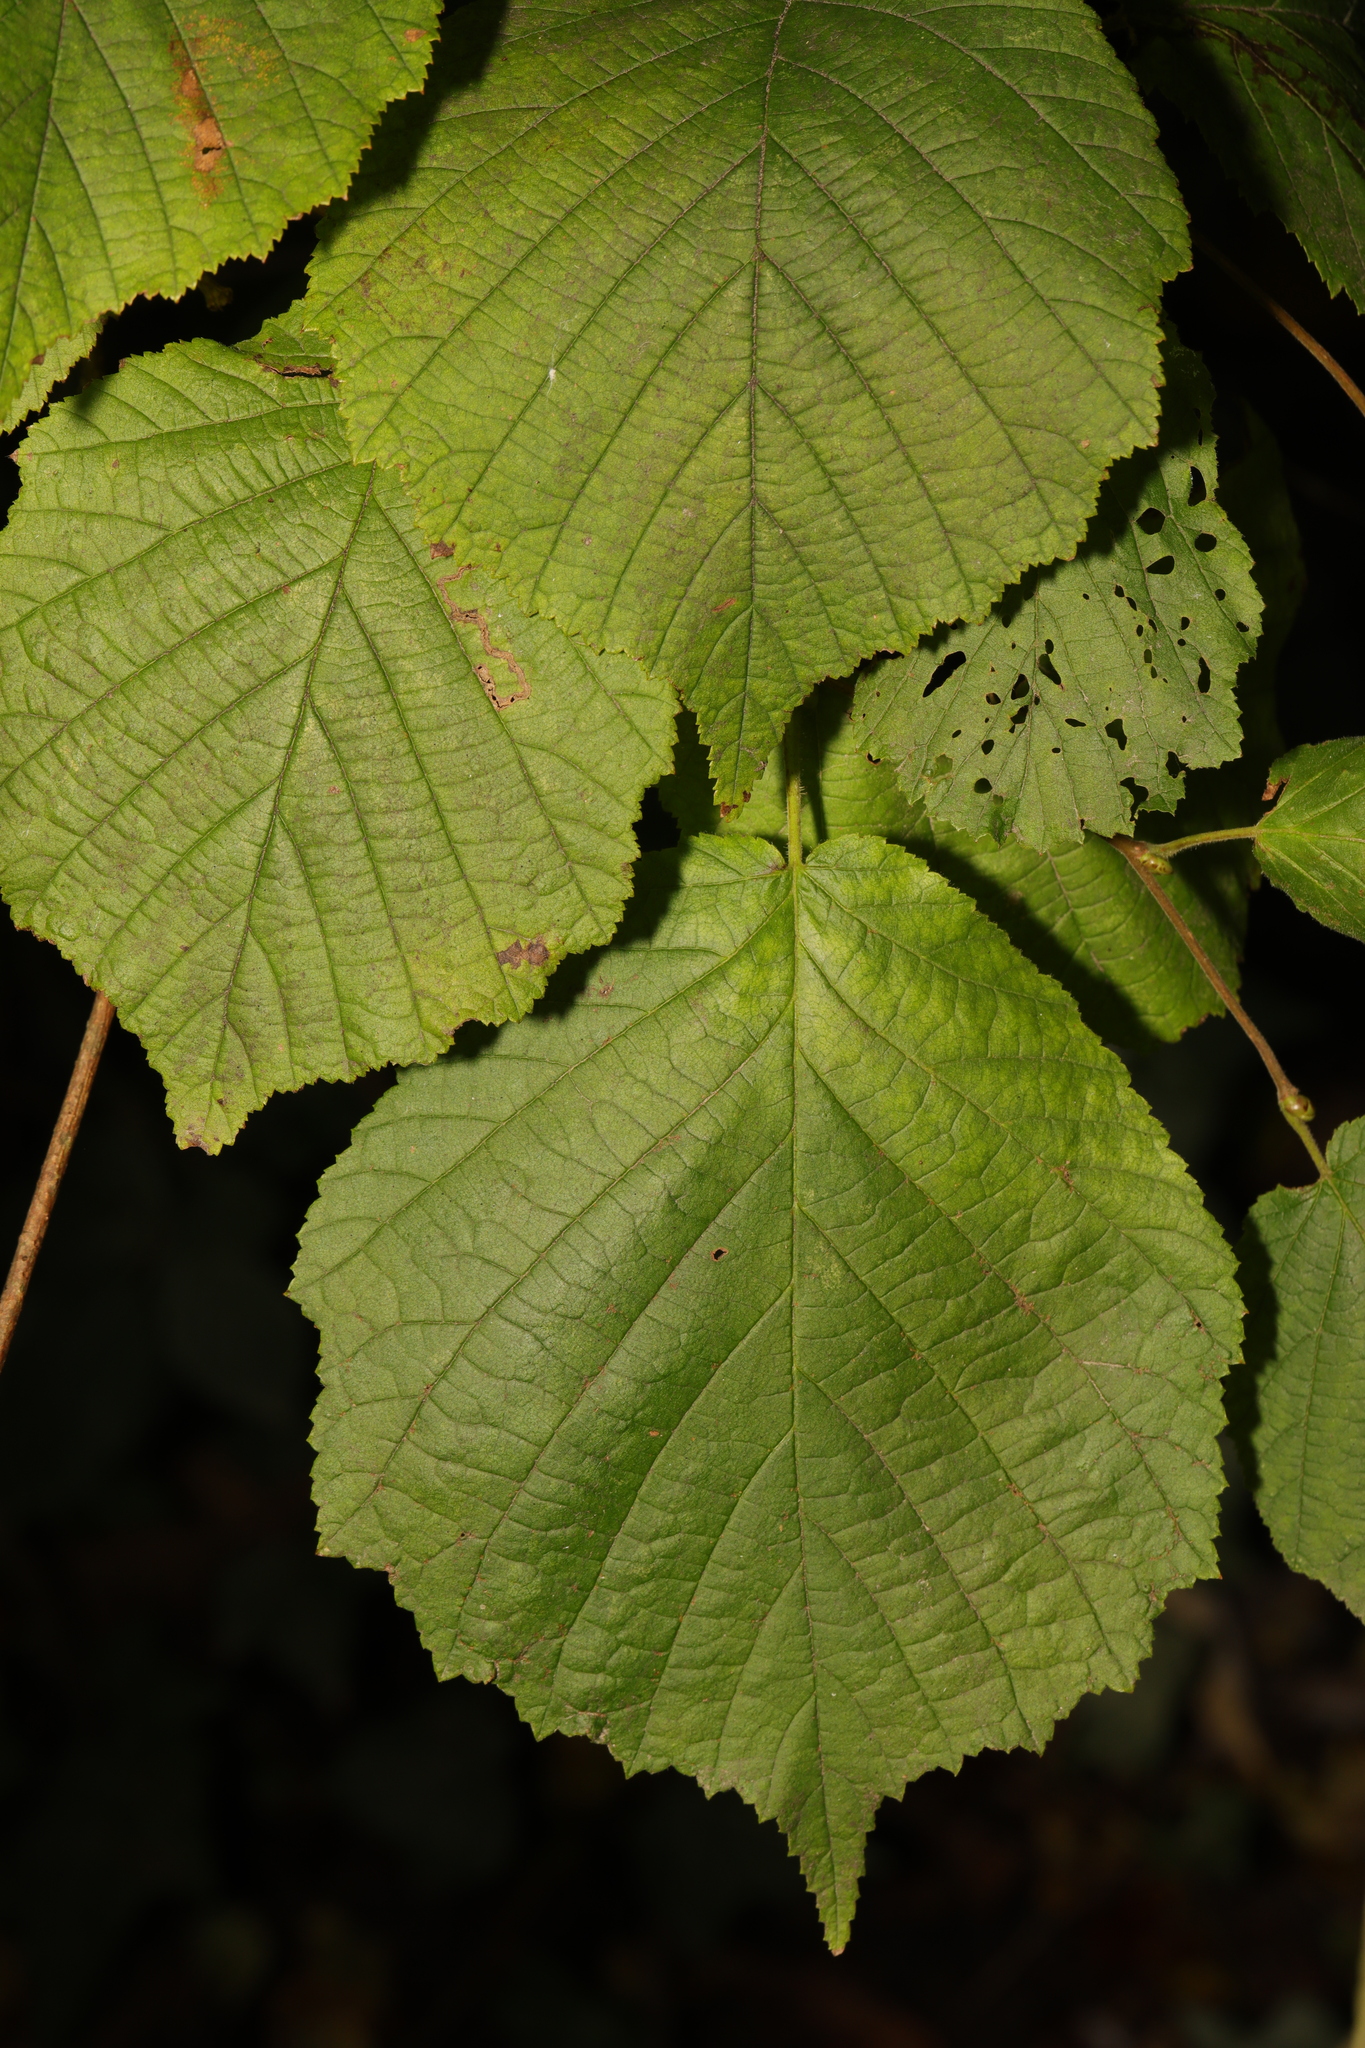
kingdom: Plantae
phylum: Tracheophyta
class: Magnoliopsida
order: Fagales
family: Betulaceae
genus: Corylus
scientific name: Corylus avellana
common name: European hazel
